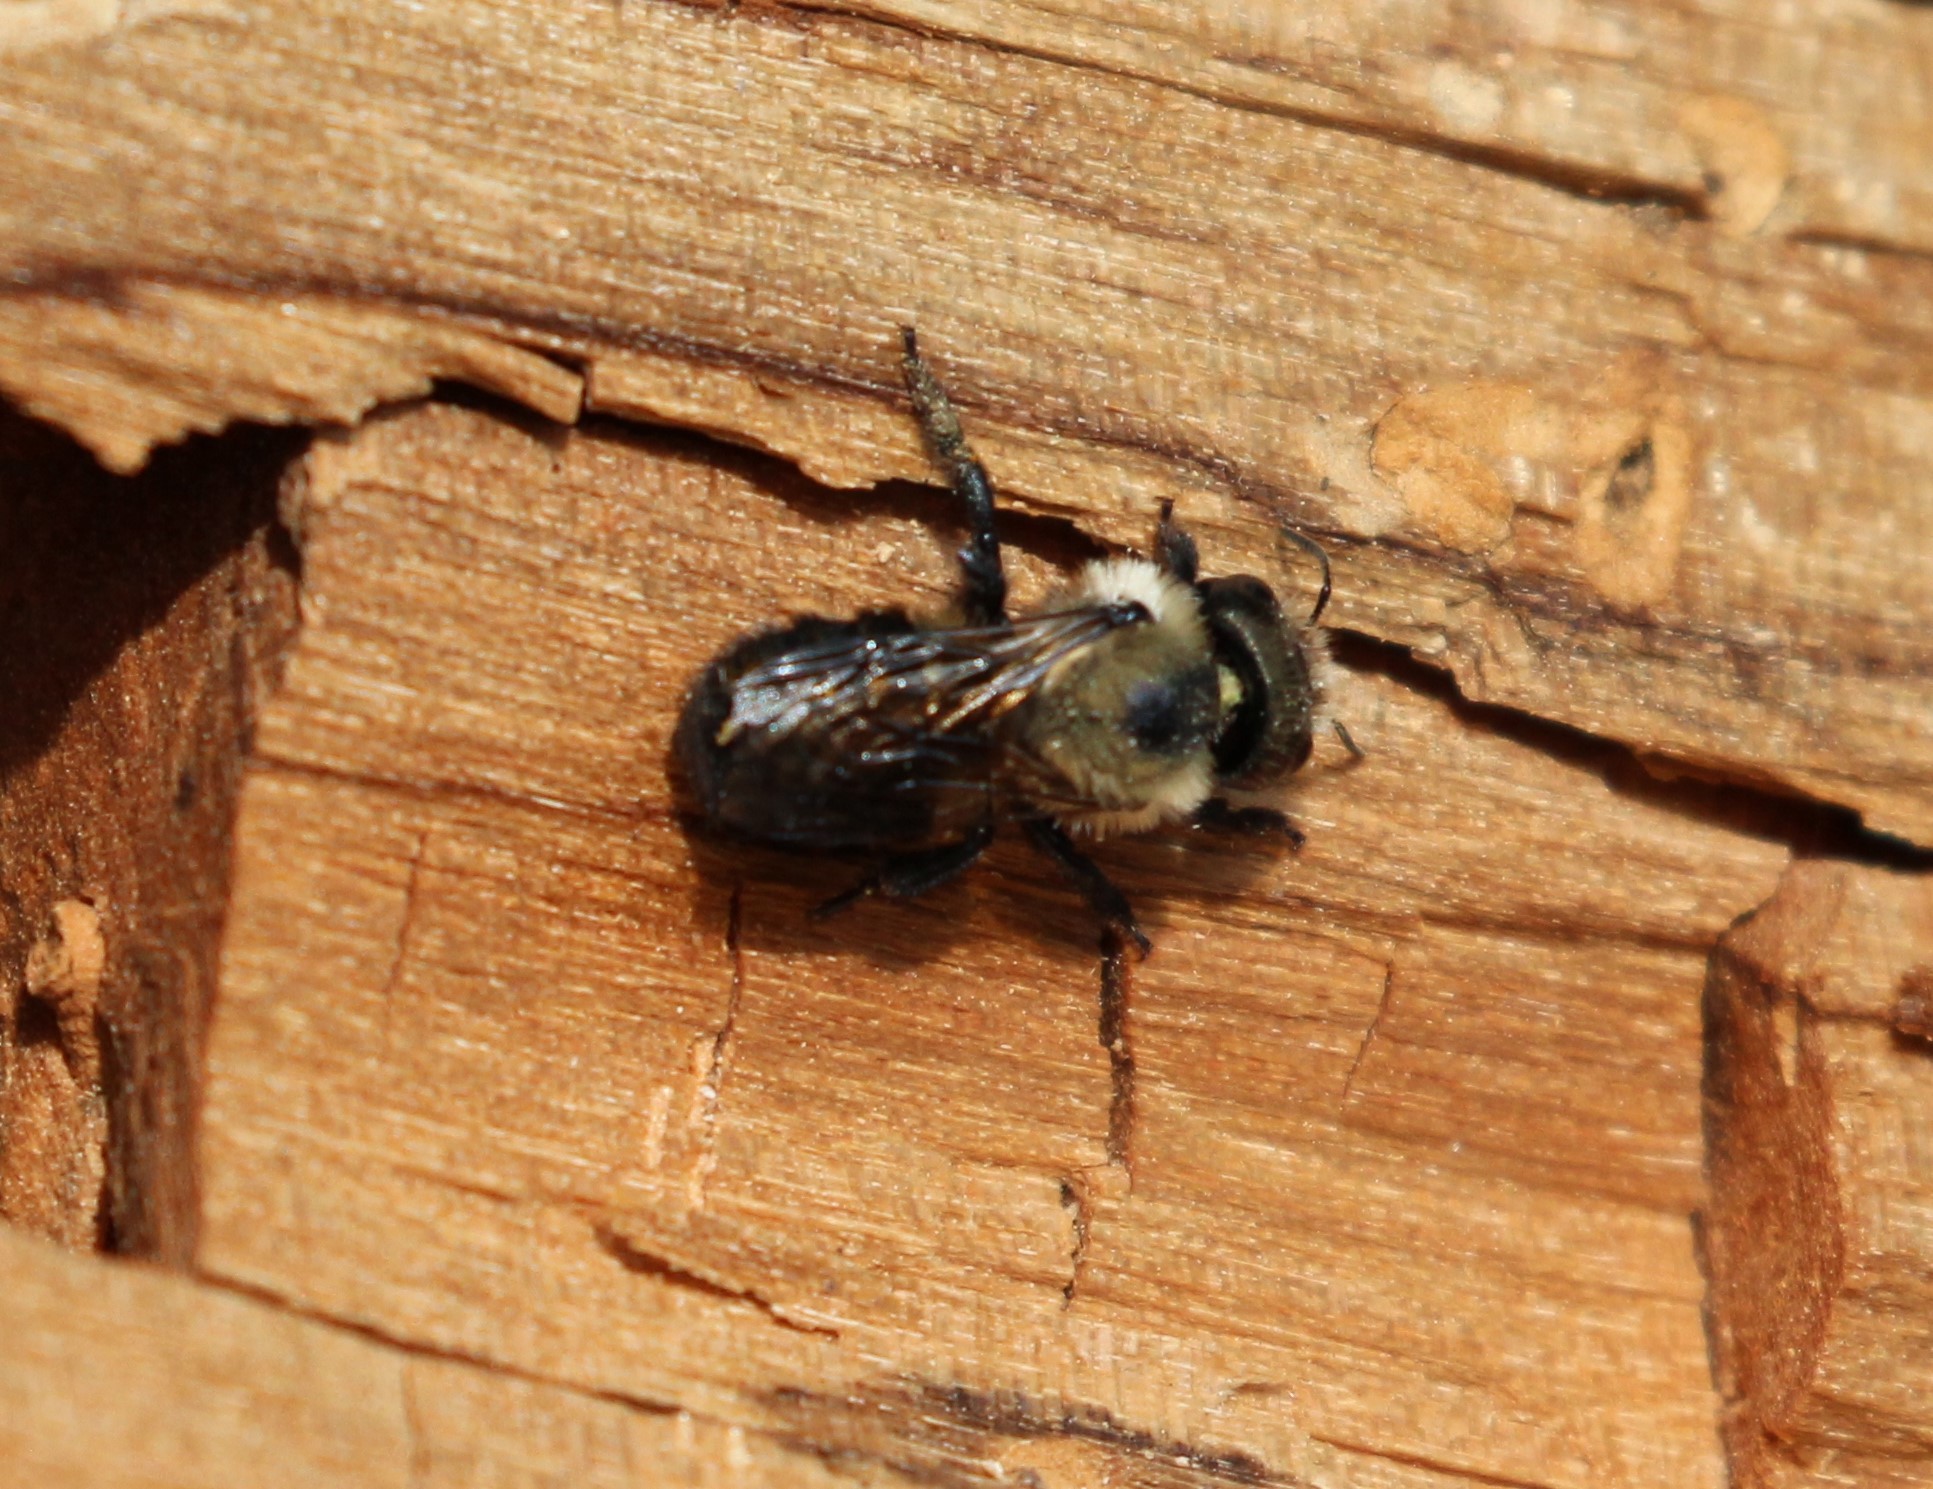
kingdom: Animalia
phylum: Arthropoda
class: Insecta
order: Hymenoptera
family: Megachilidae
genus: Osmia
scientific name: Osmia bucephala
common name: Bufflehead mason bee
